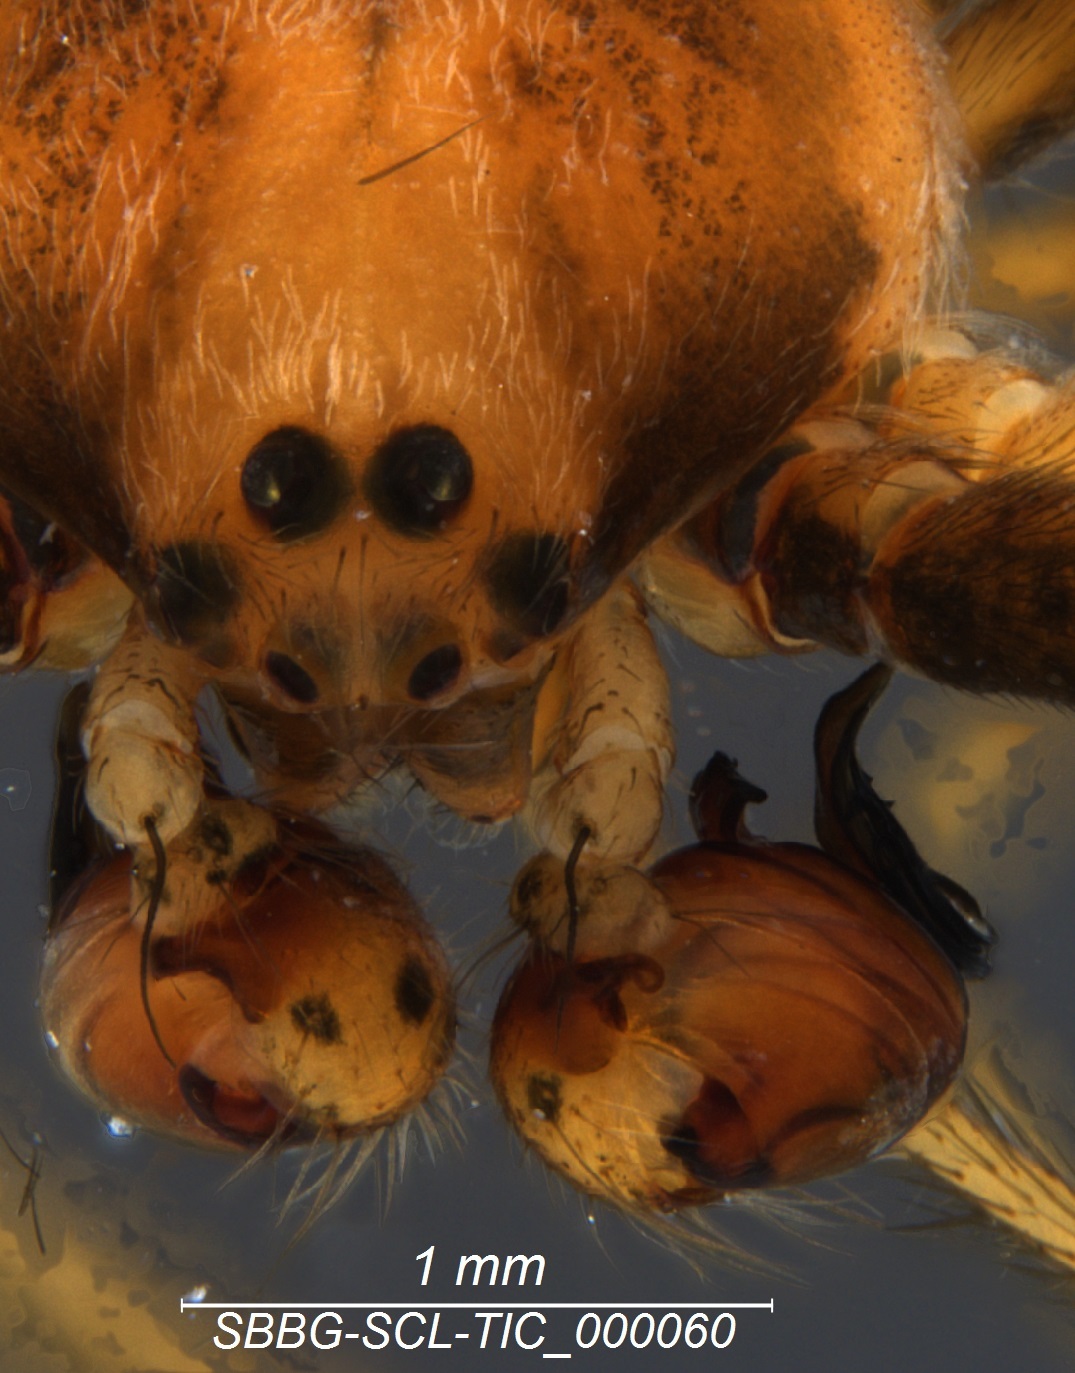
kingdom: Animalia
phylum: Arthropoda
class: Arachnida
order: Araneae
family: Araneidae
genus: Argiope
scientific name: Argiope argentata
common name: Orb weavers
